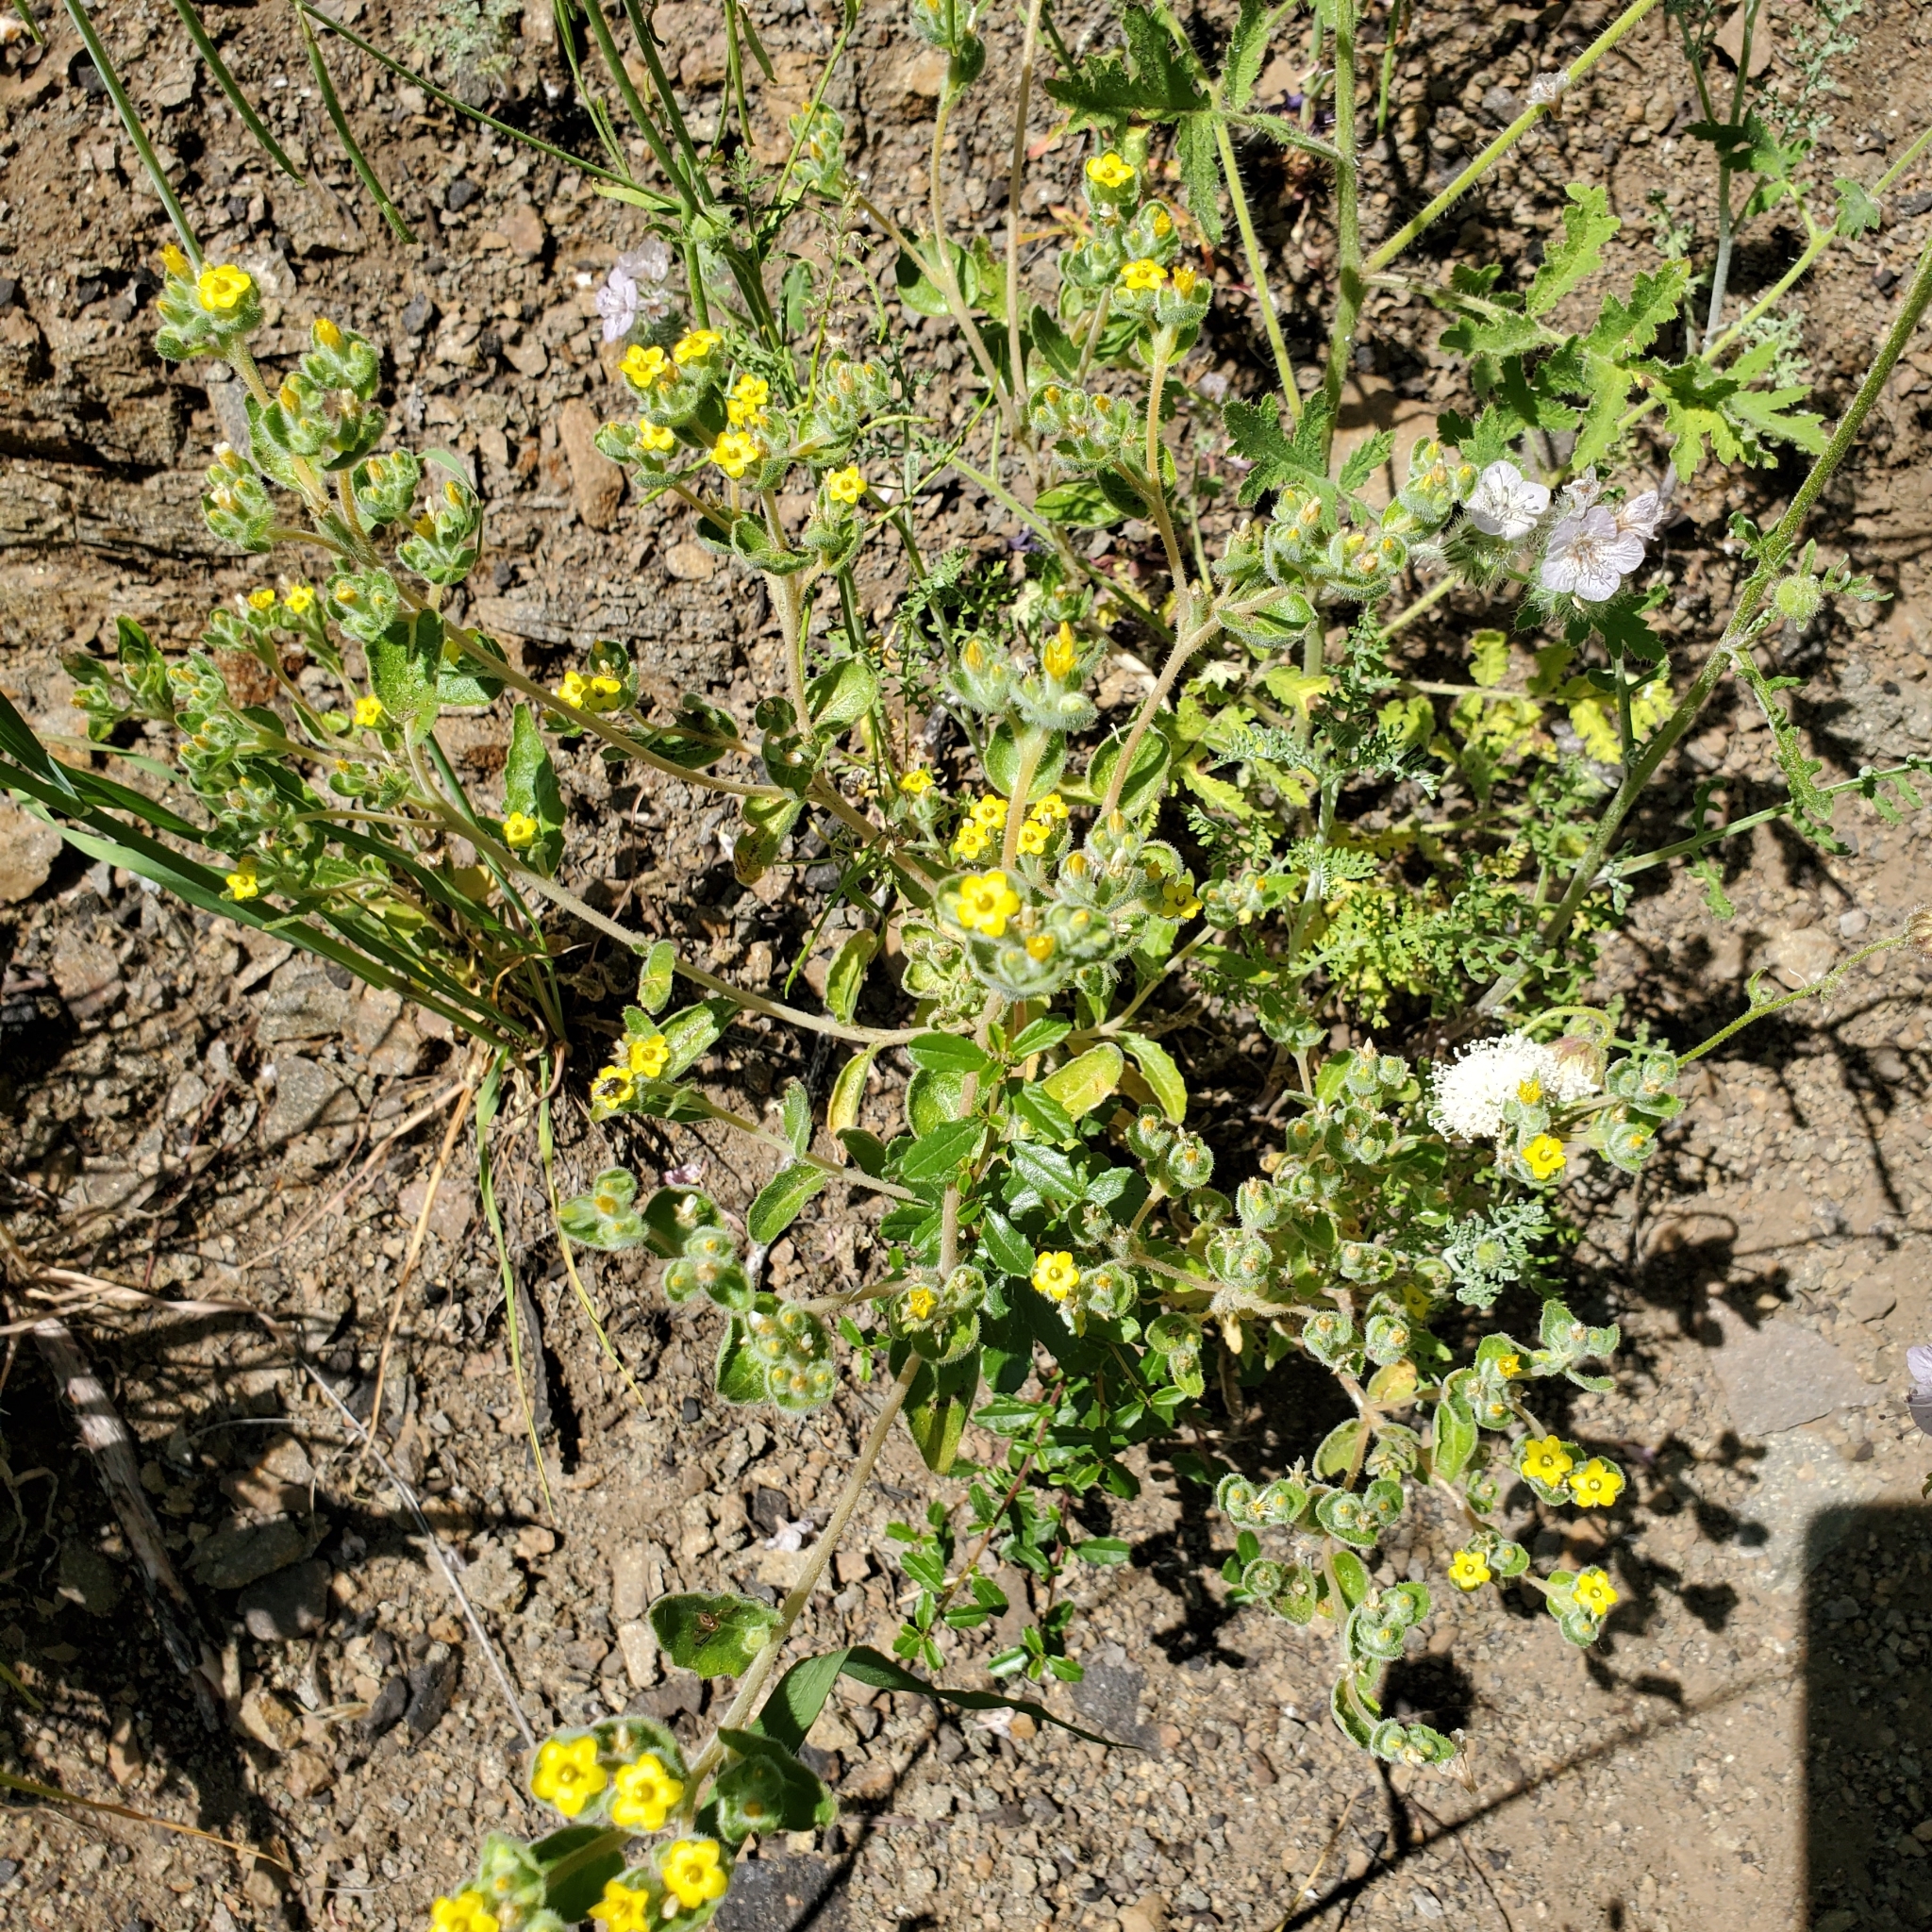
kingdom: Plantae
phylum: Tracheophyta
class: Magnoliopsida
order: Cornales
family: Loasaceae
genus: Mentzelia
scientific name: Mentzelia micrantha
